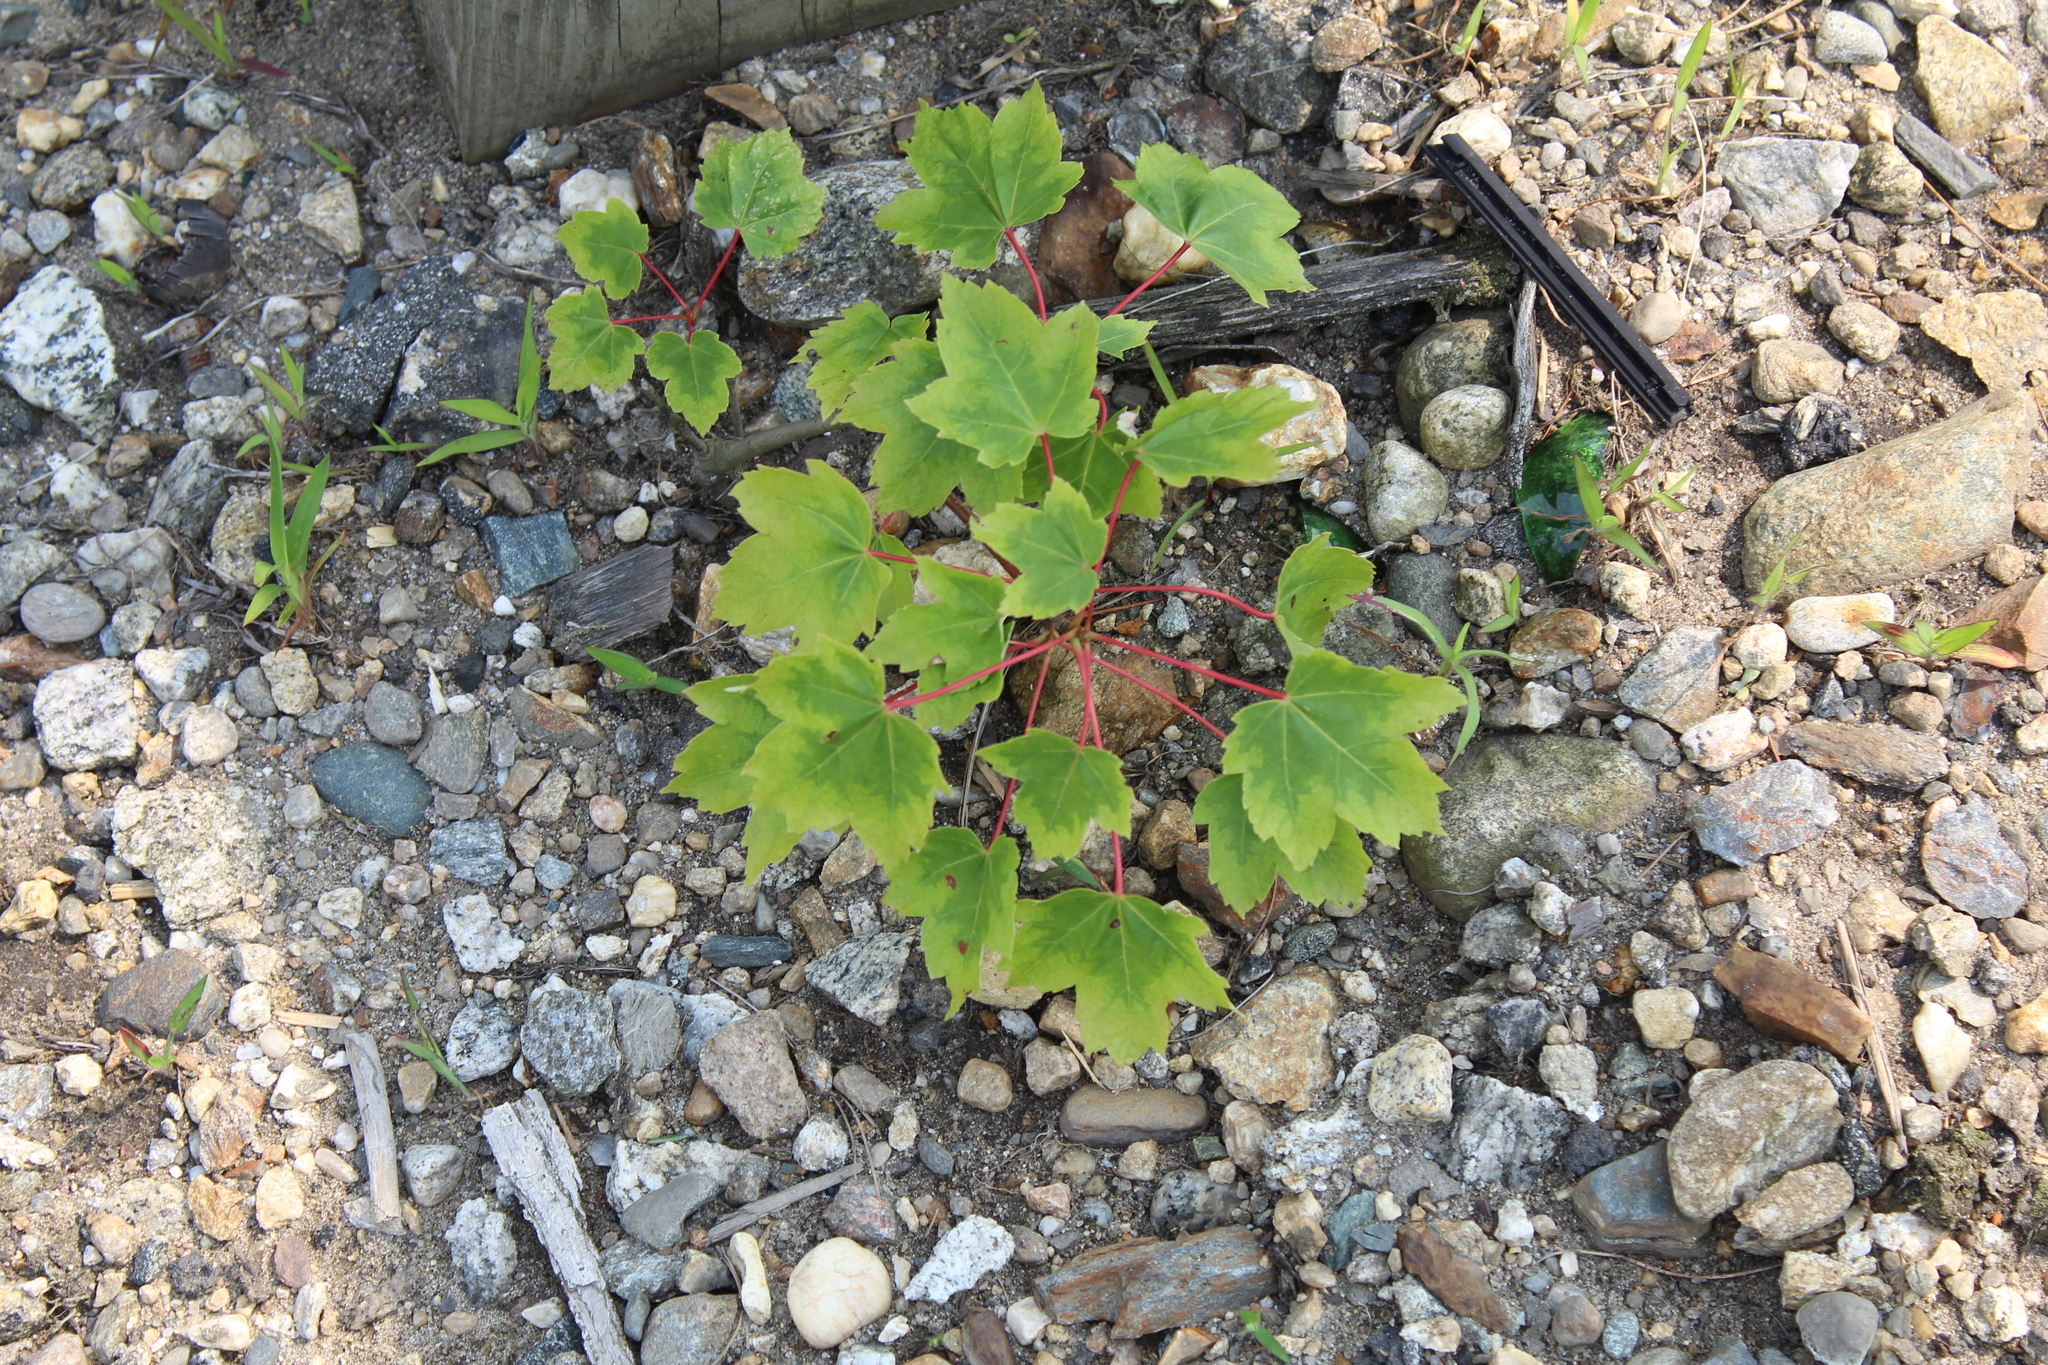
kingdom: Plantae
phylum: Tracheophyta
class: Magnoliopsida
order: Sapindales
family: Sapindaceae
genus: Acer
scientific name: Acer rubrum
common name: Red maple
